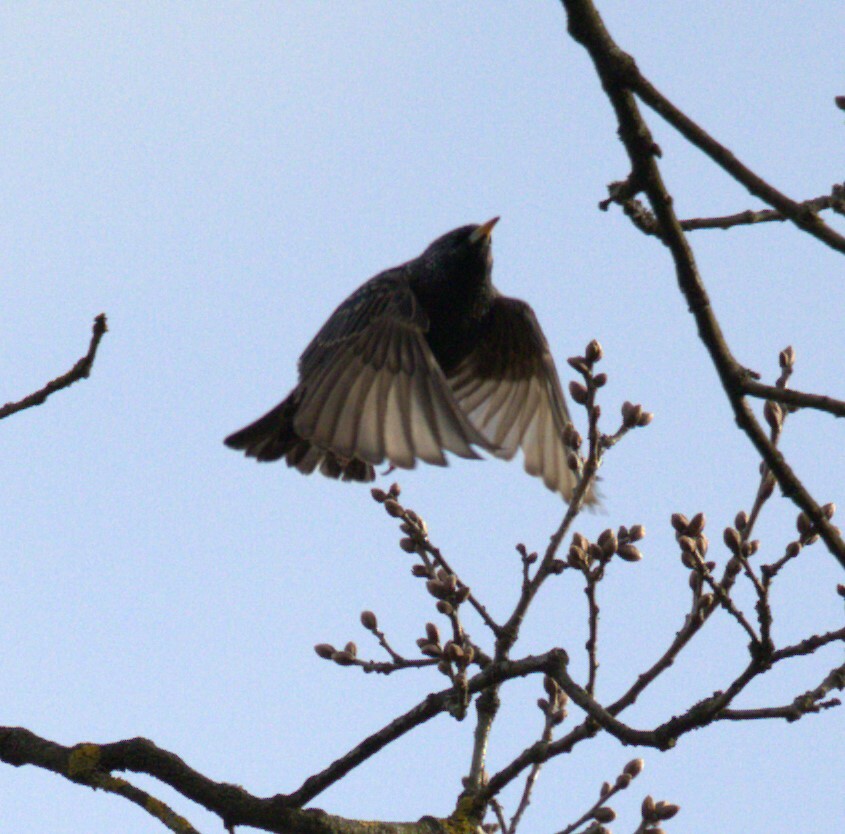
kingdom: Animalia
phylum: Chordata
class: Aves
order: Passeriformes
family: Sturnidae
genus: Sturnus
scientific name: Sturnus vulgaris
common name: Common starling
